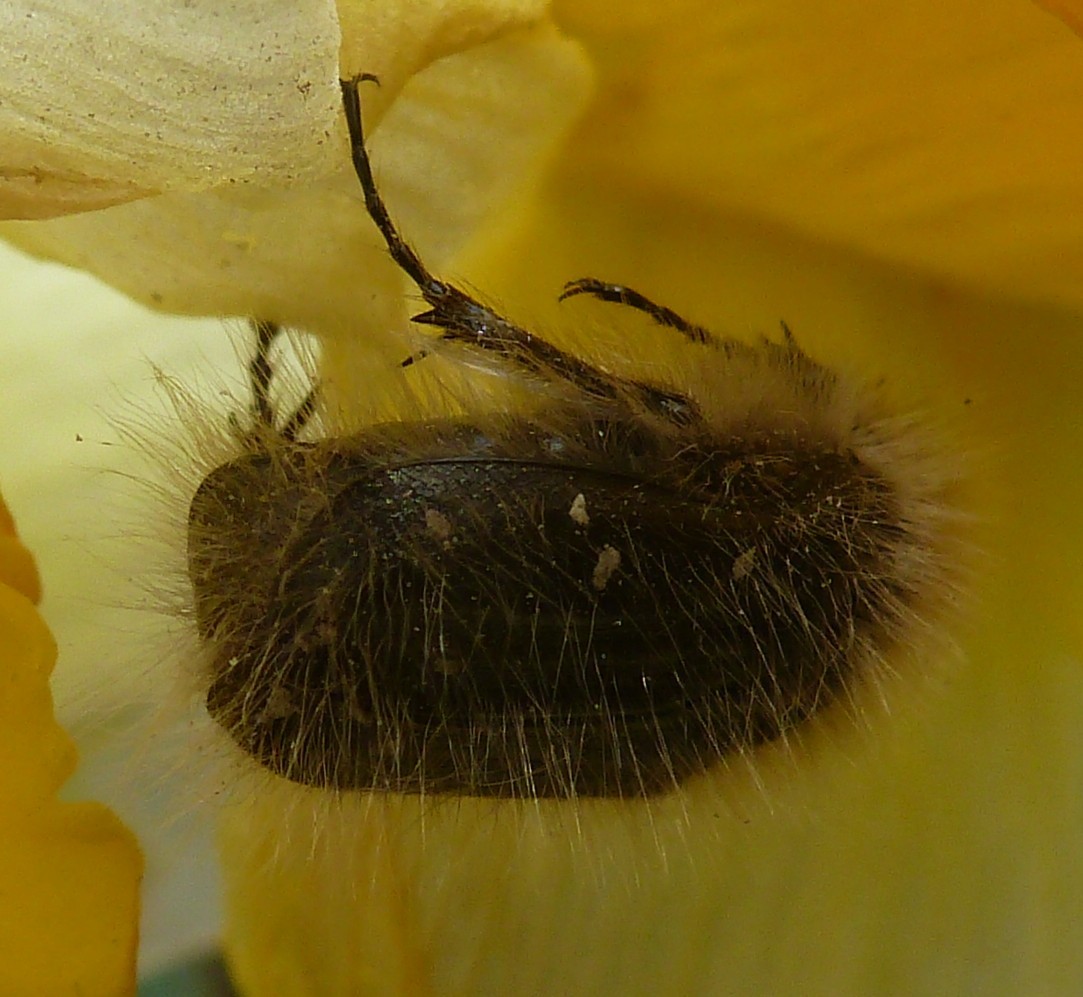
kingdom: Animalia
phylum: Arthropoda
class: Insecta
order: Coleoptera
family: Scarabaeidae
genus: Tropinota
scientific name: Tropinota hirta
